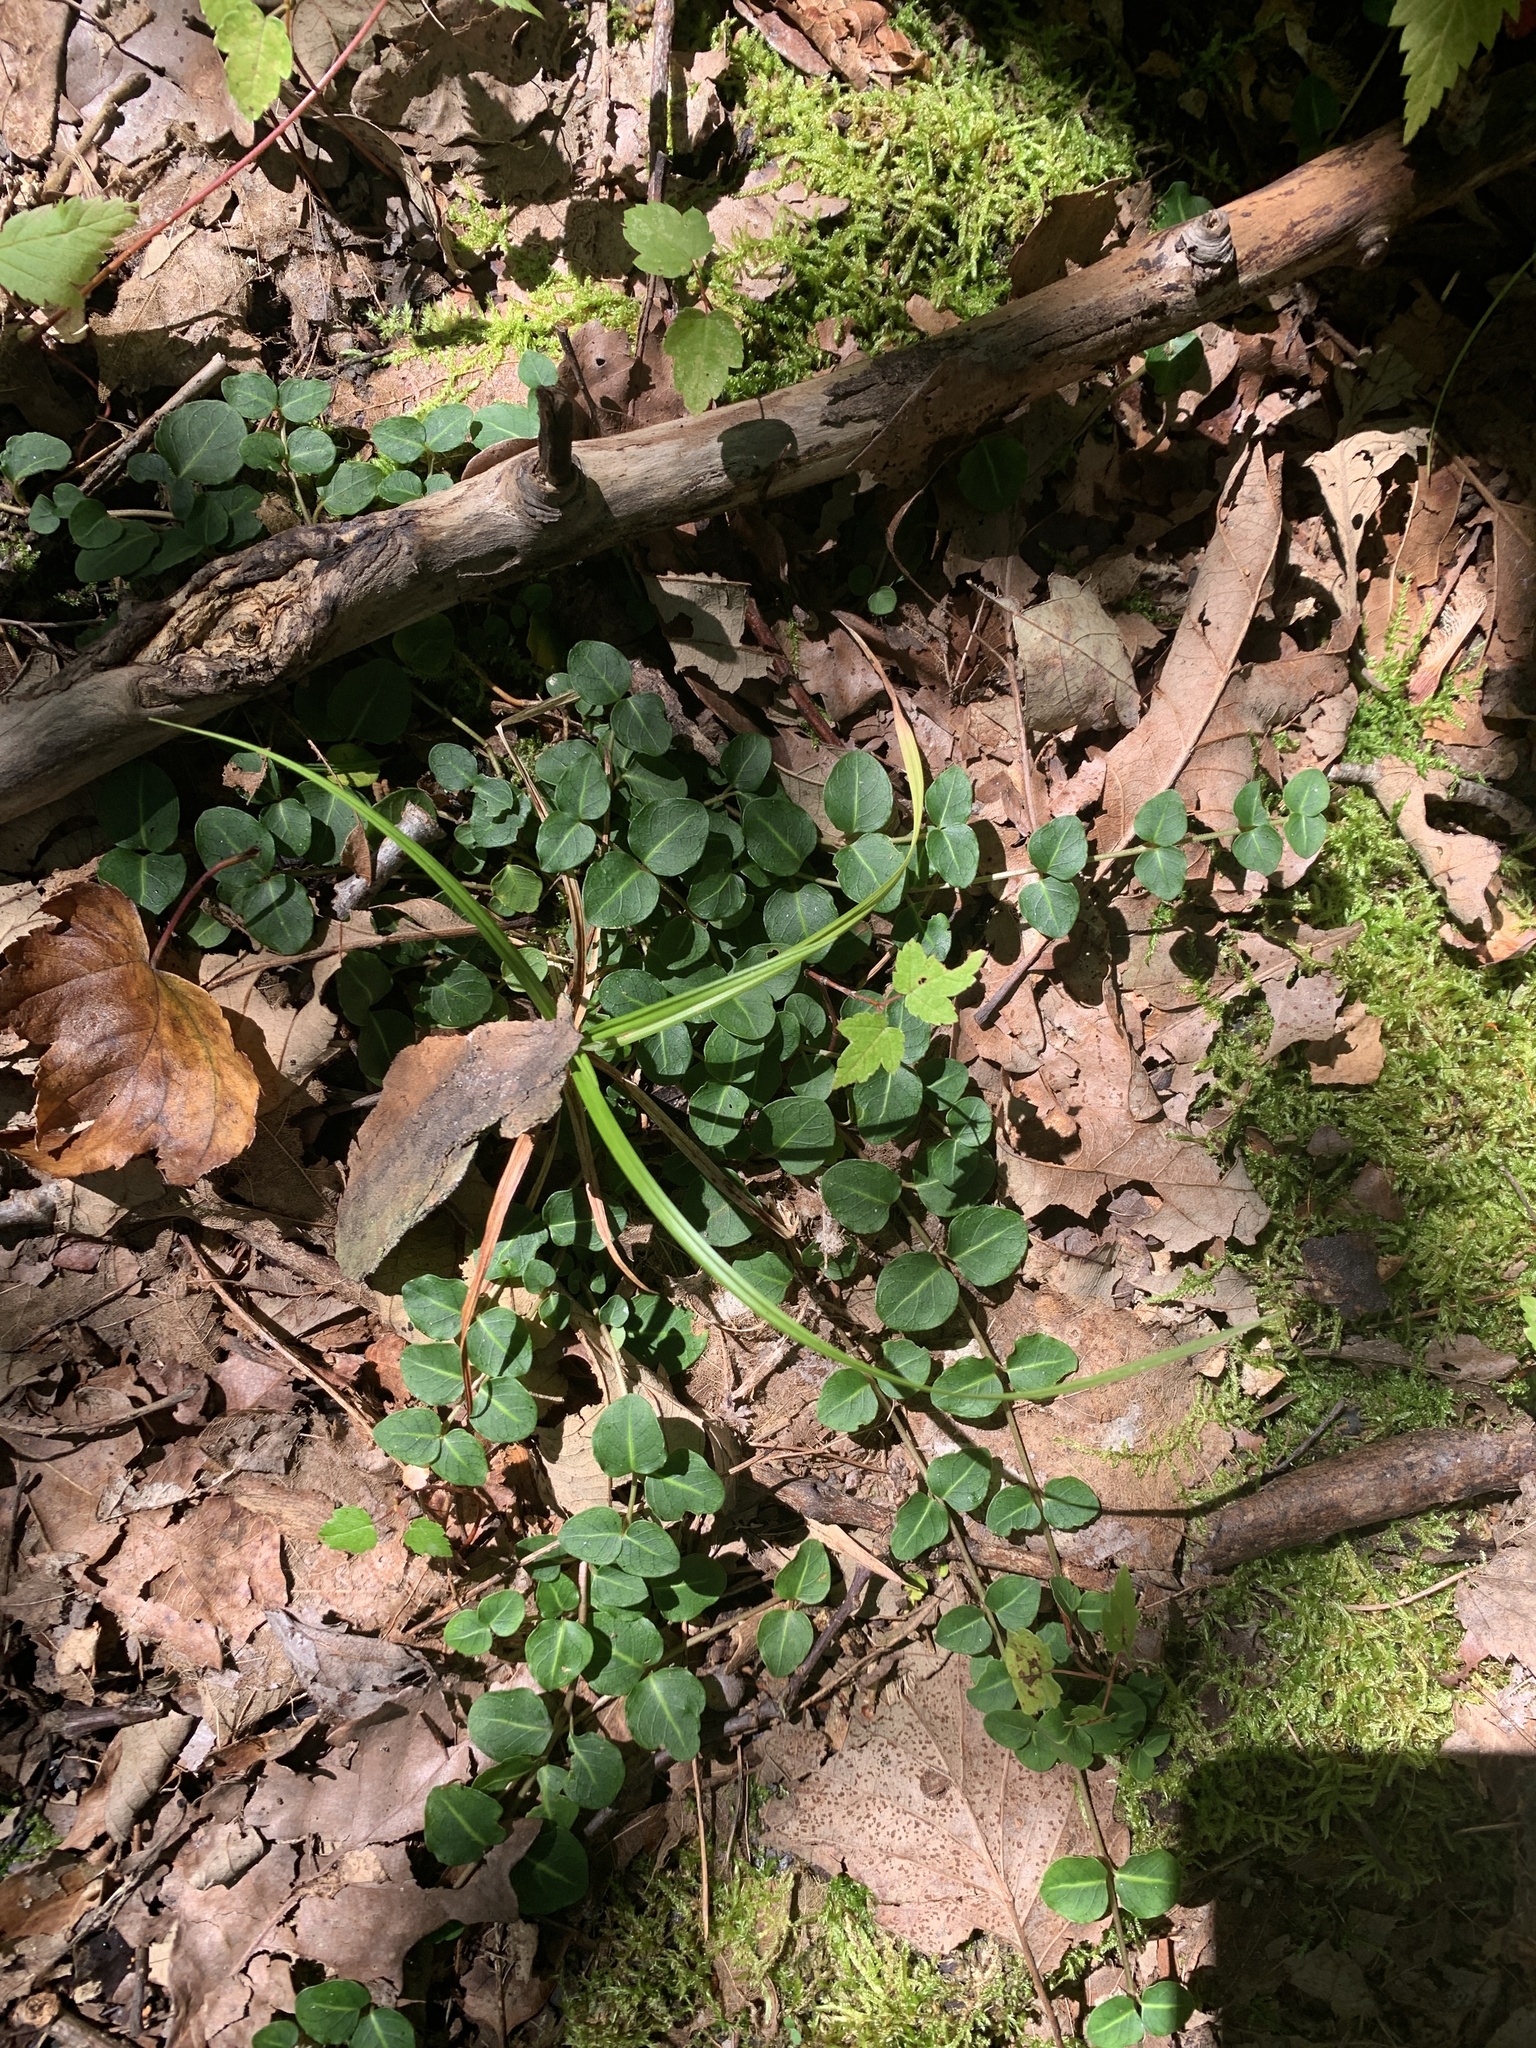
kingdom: Plantae
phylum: Tracheophyta
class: Magnoliopsida
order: Gentianales
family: Rubiaceae
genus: Mitchella
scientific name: Mitchella repens
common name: Partridge-berry
